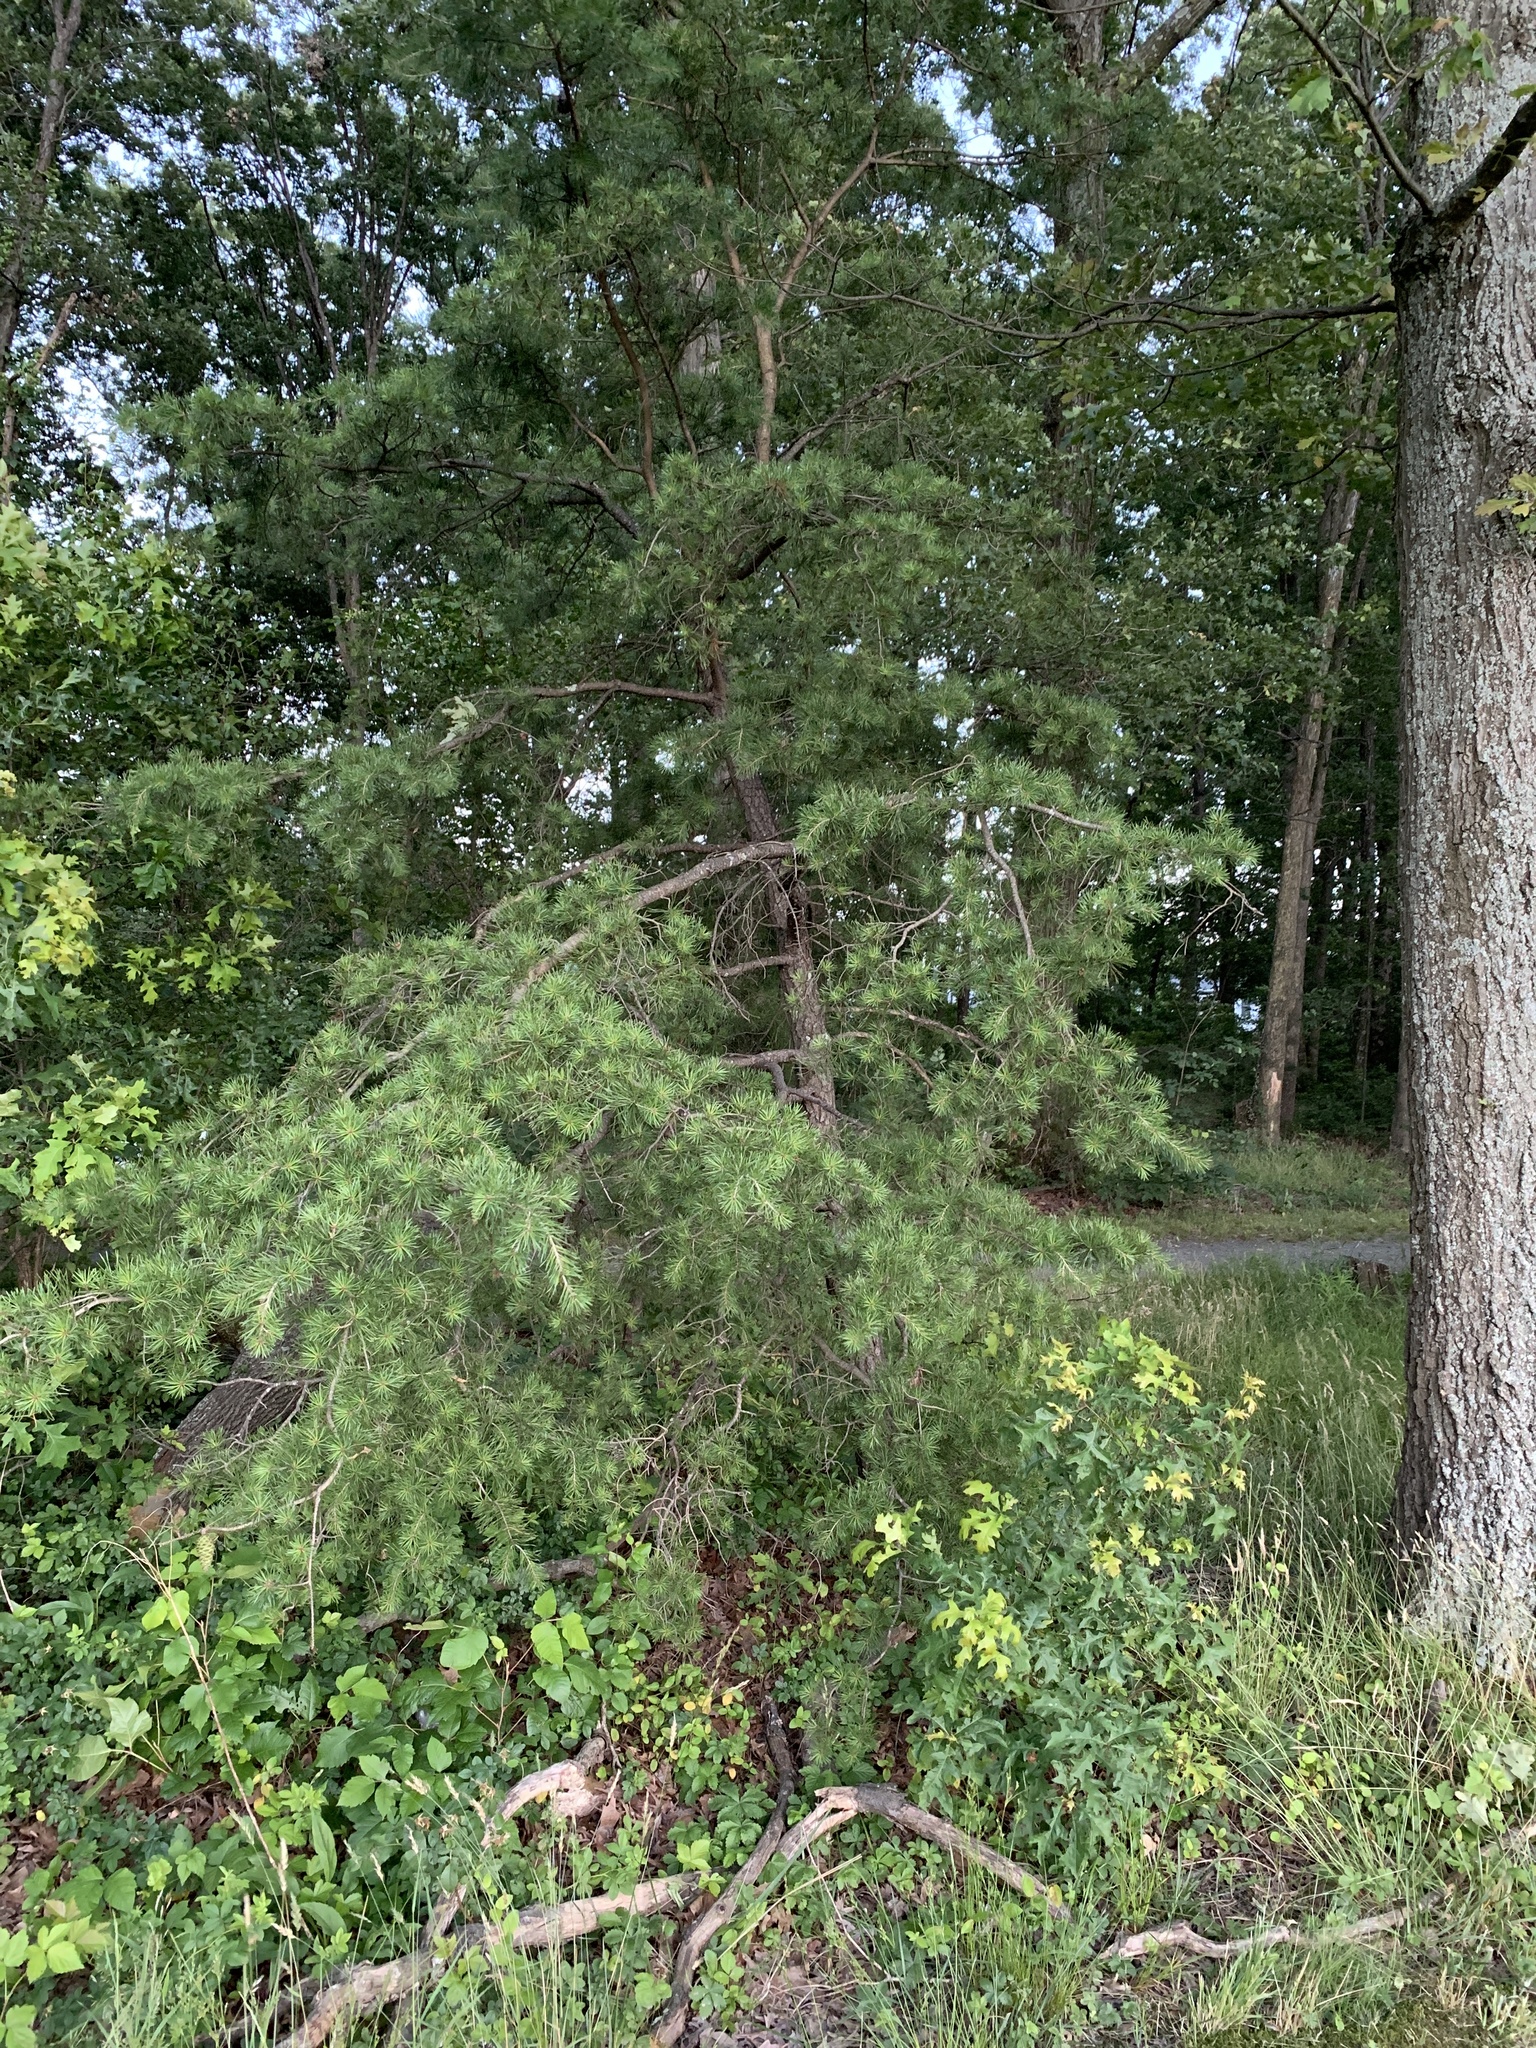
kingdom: Plantae
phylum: Tracheophyta
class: Pinopsida
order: Pinales
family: Pinaceae
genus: Pinus
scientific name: Pinus virginiana
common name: Scrub pine
